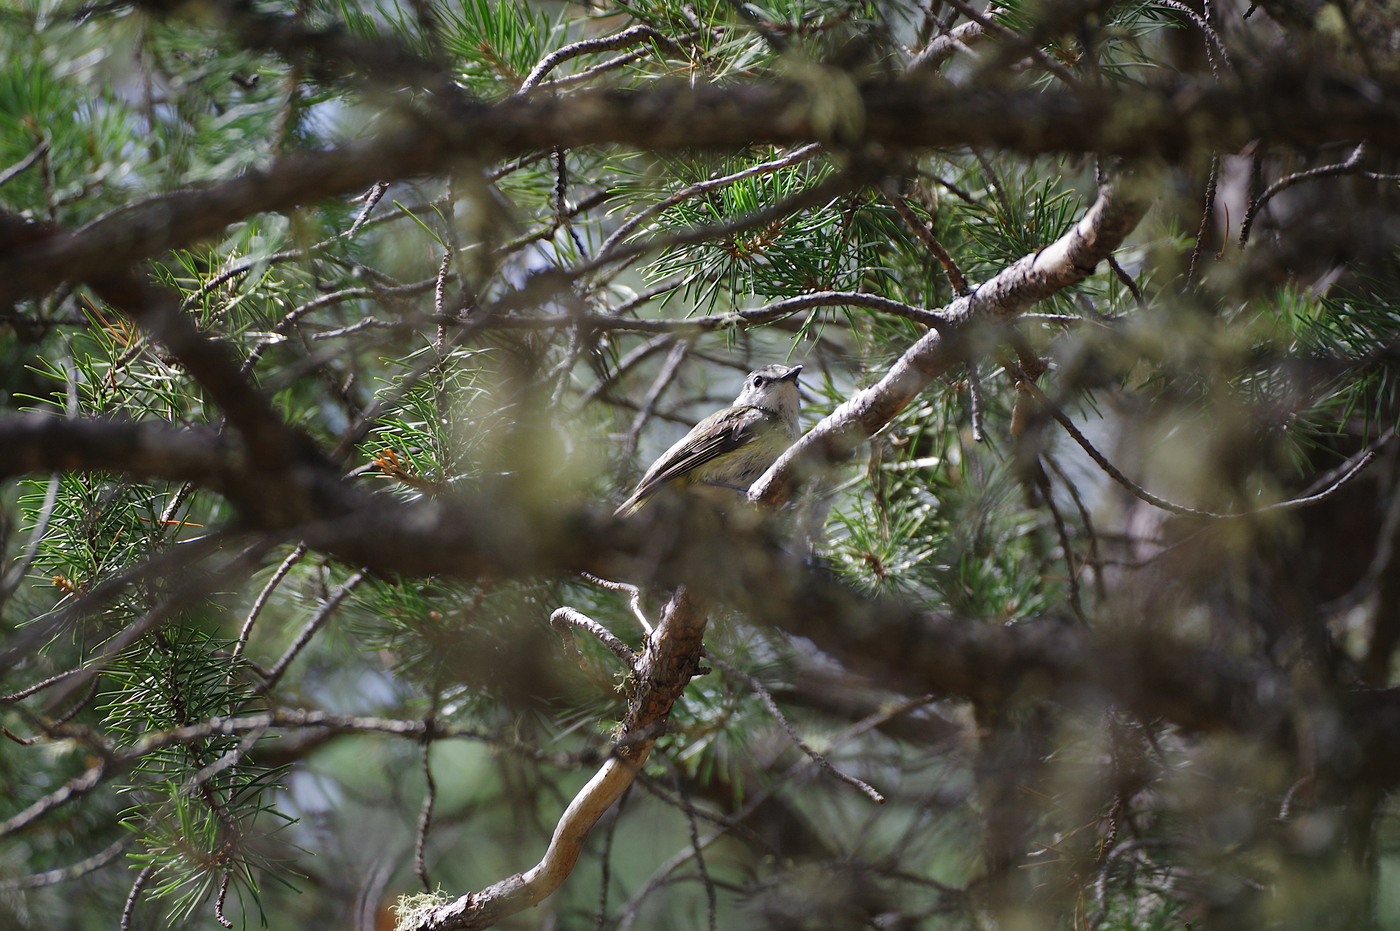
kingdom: Animalia
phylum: Chordata
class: Aves
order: Passeriformes
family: Vireonidae
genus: Vireo
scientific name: Vireo solitarius
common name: Blue-headed vireo
